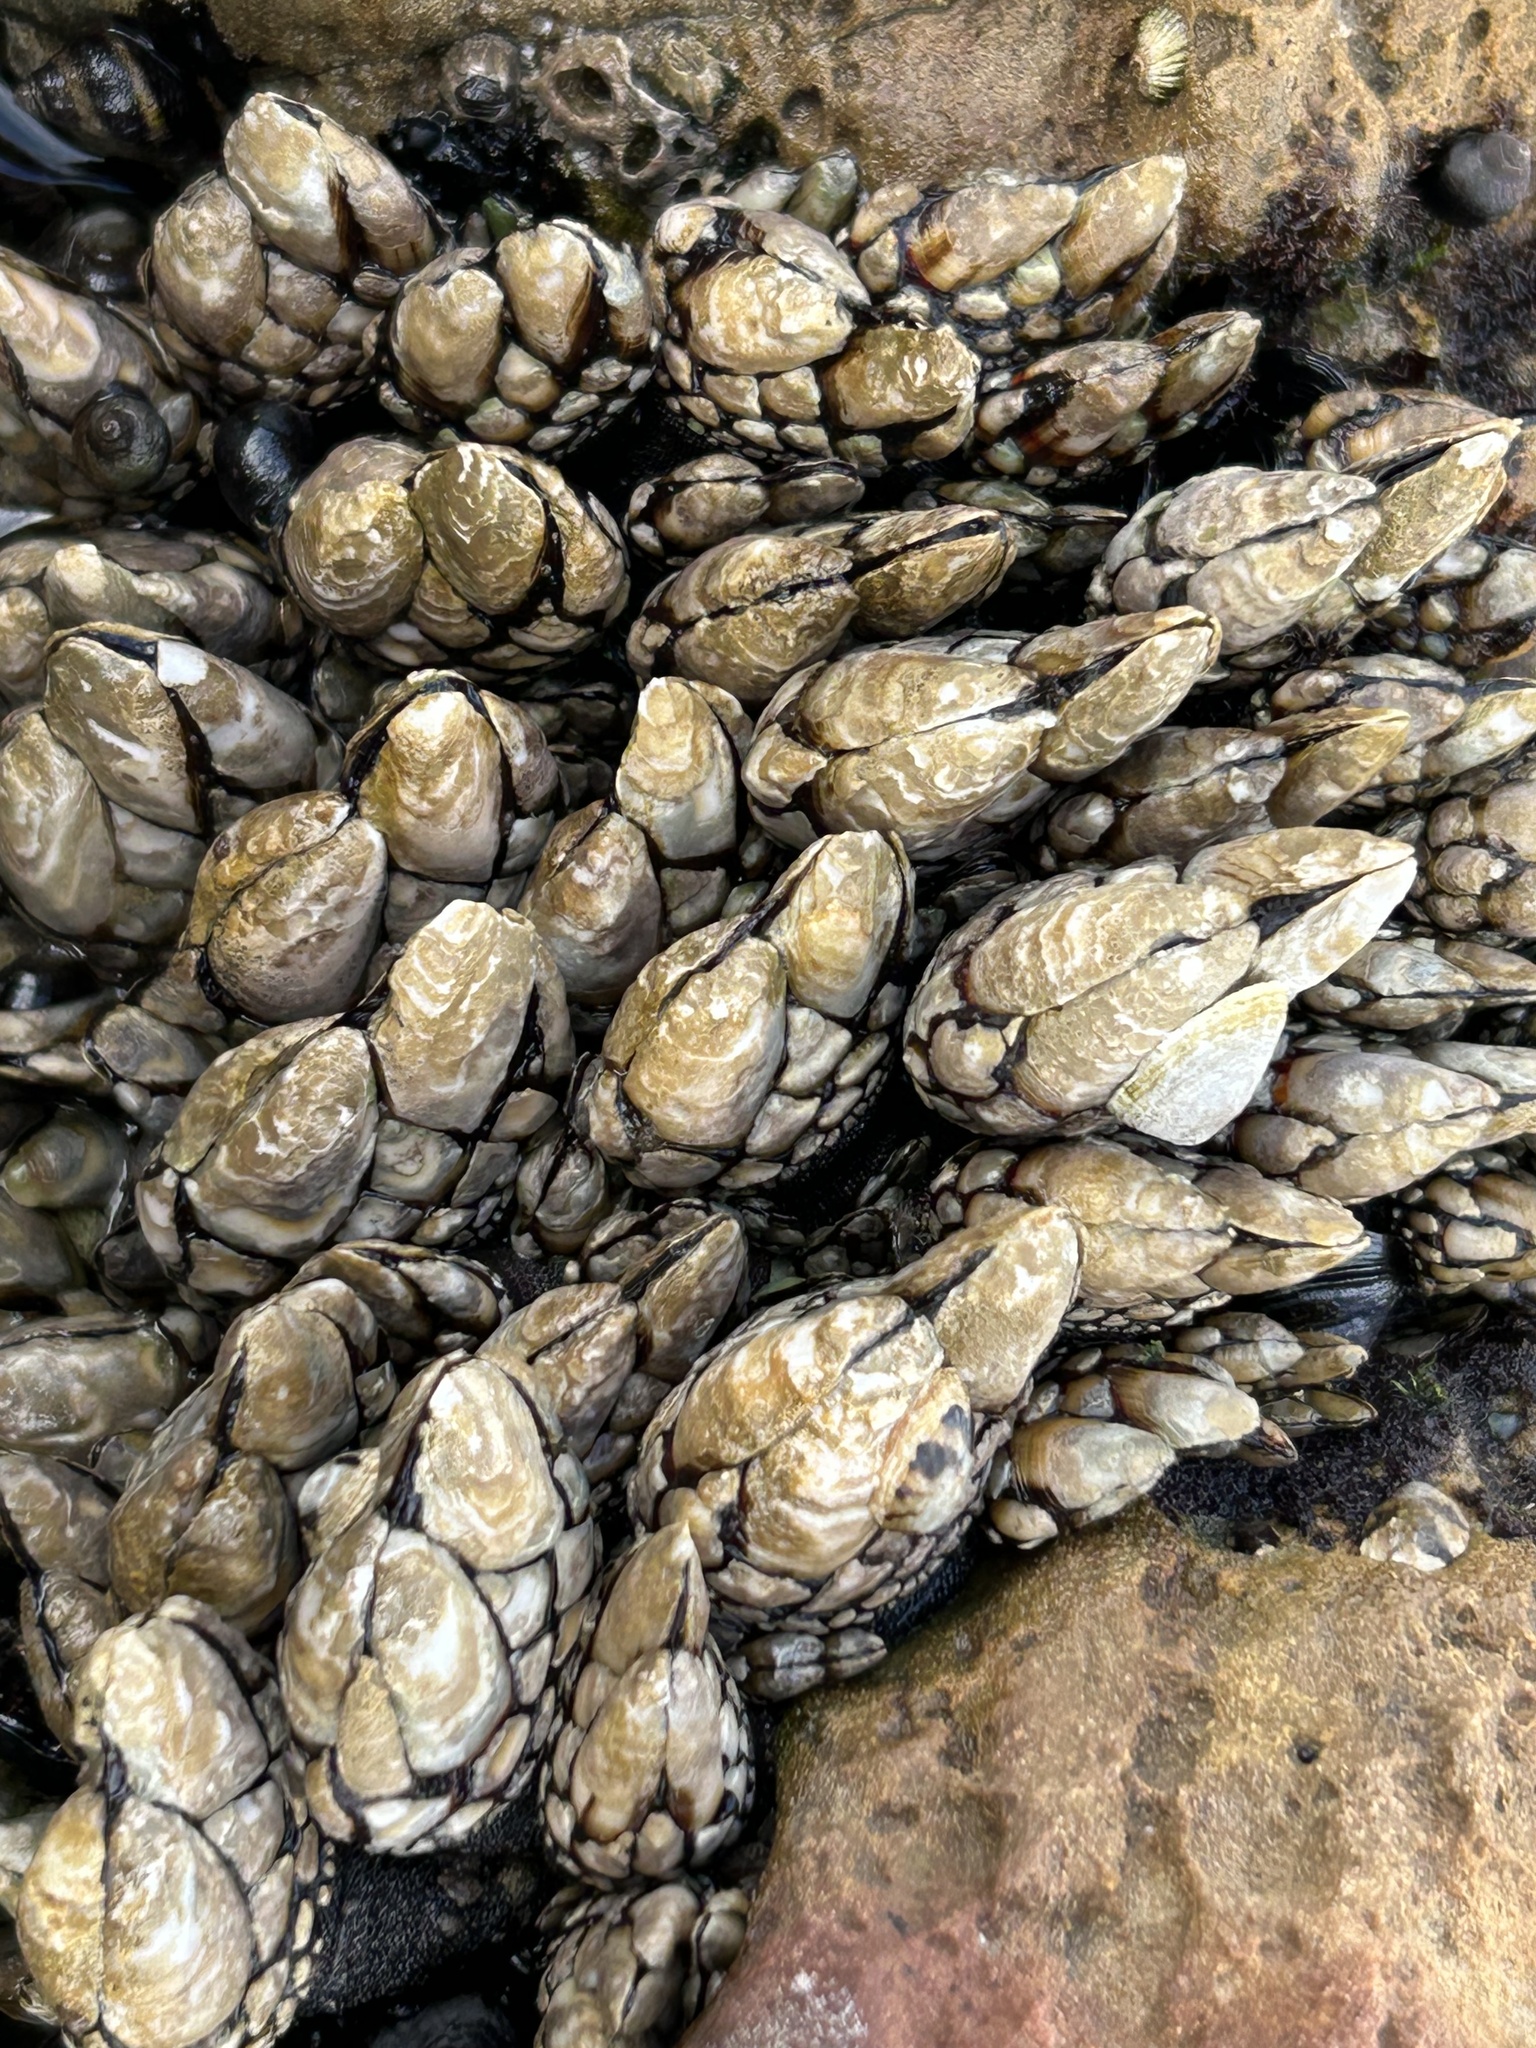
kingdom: Animalia
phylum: Arthropoda
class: Maxillopoda
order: Pedunculata
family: Pollicipedidae
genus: Pollicipes
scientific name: Pollicipes polymerus
